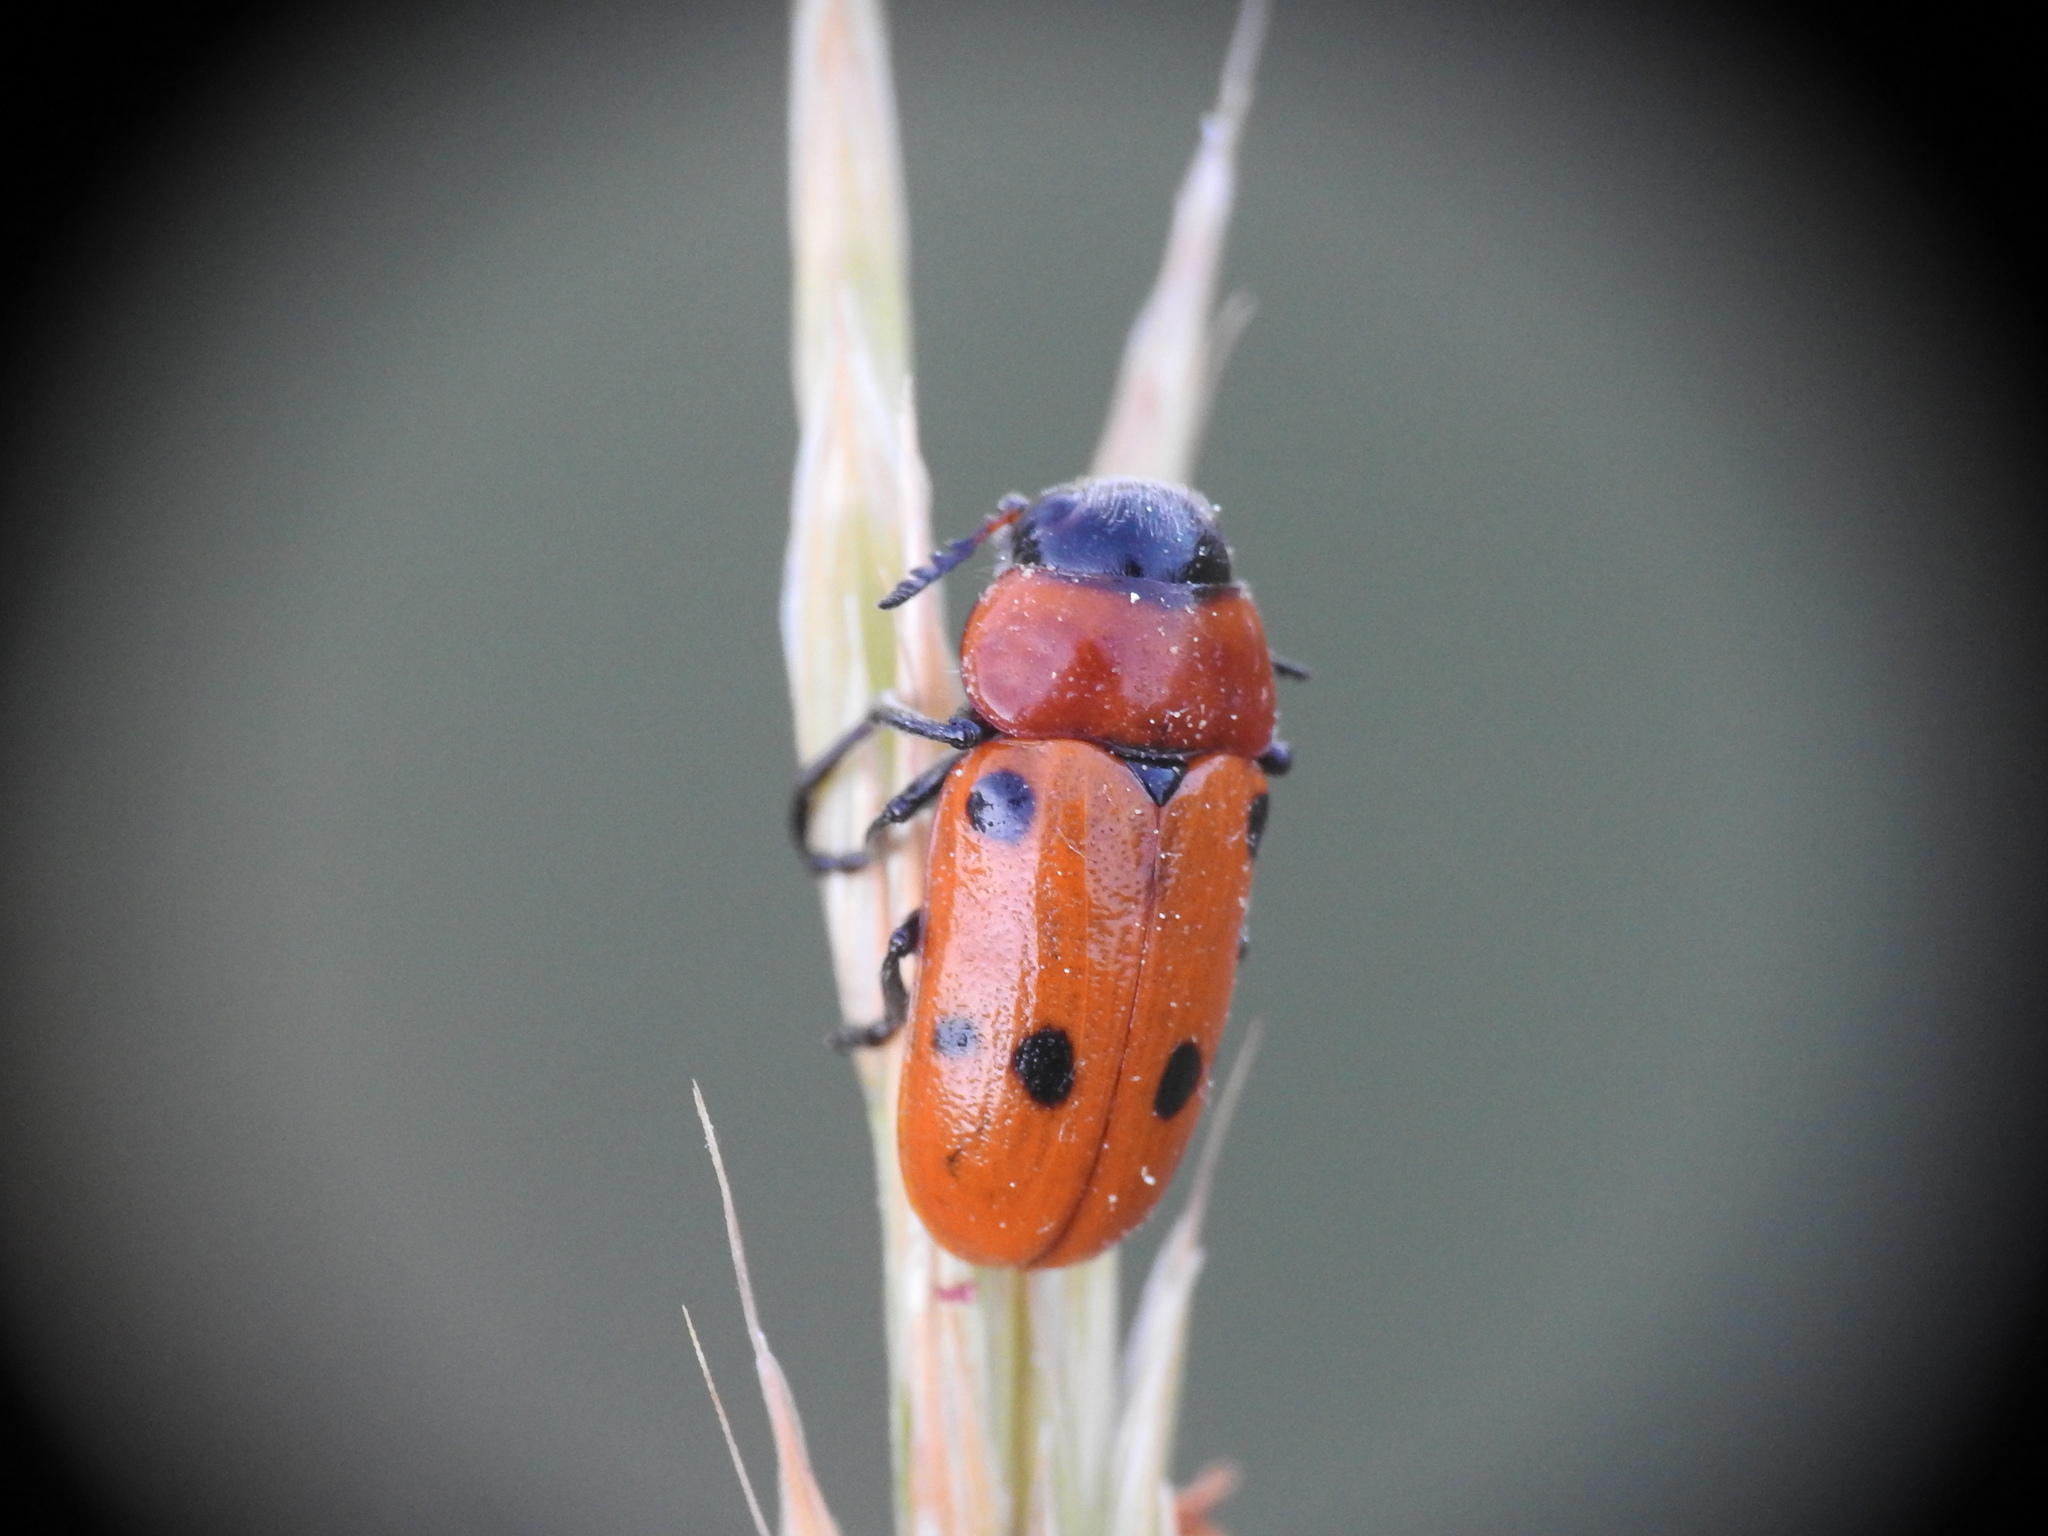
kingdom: Animalia
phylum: Arthropoda
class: Insecta
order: Coleoptera
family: Chrysomelidae
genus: Tituboea
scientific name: Tituboea sexmaculata
